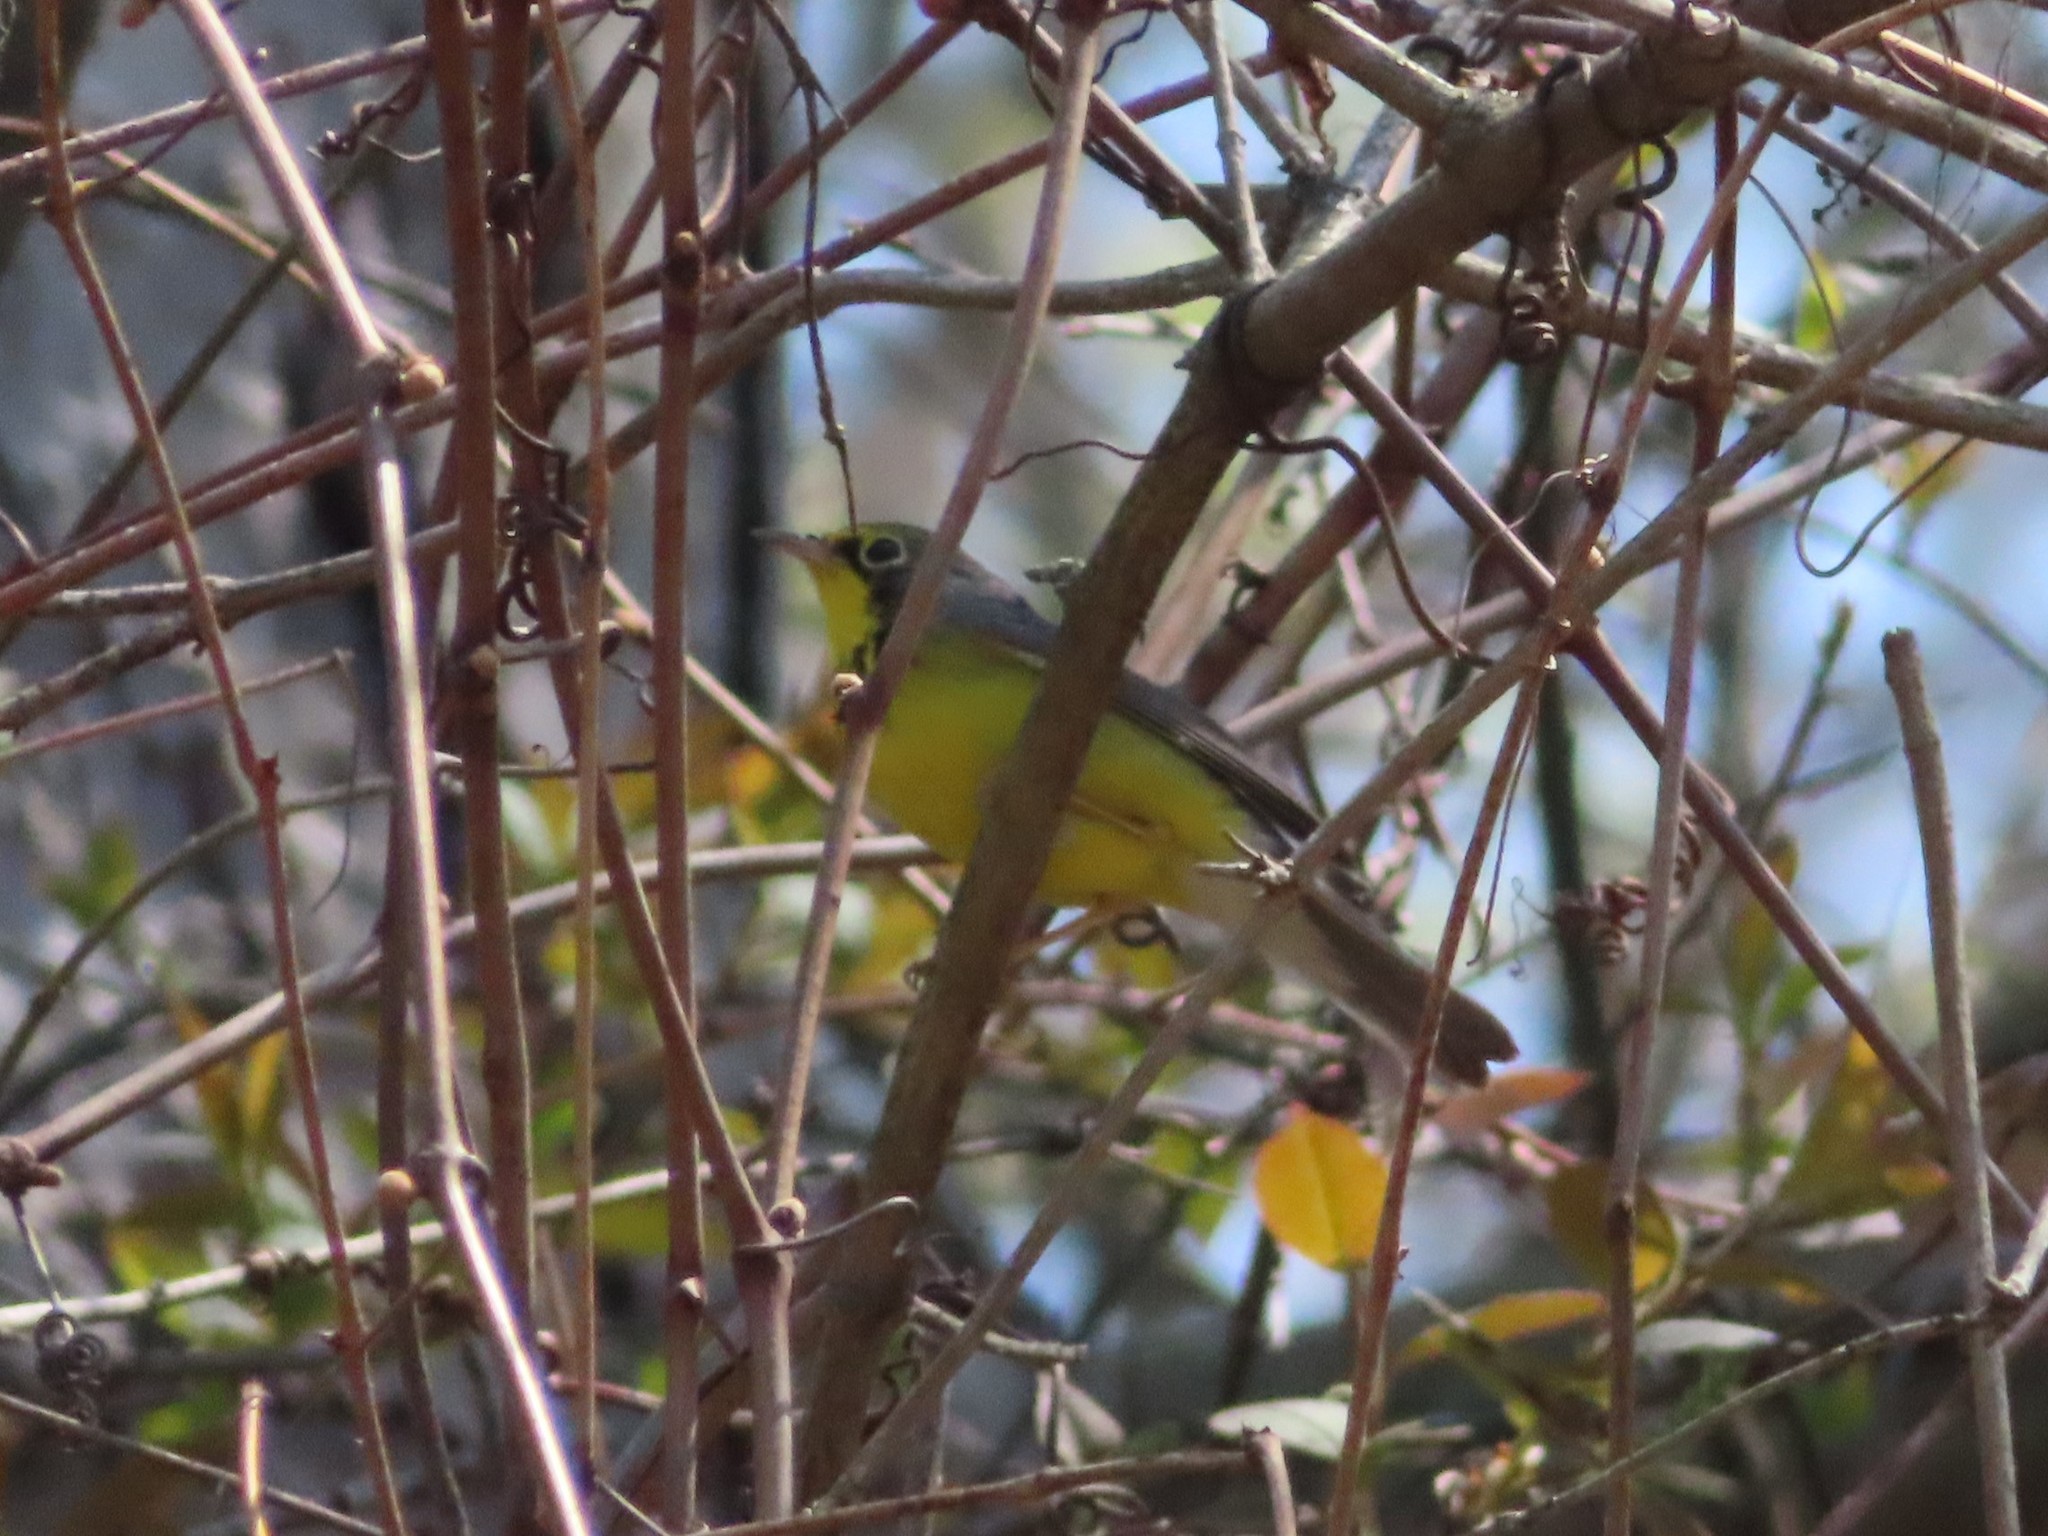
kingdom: Animalia
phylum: Chordata
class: Aves
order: Passeriformes
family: Parulidae
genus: Cardellina
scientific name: Cardellina canadensis
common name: Canada warbler
